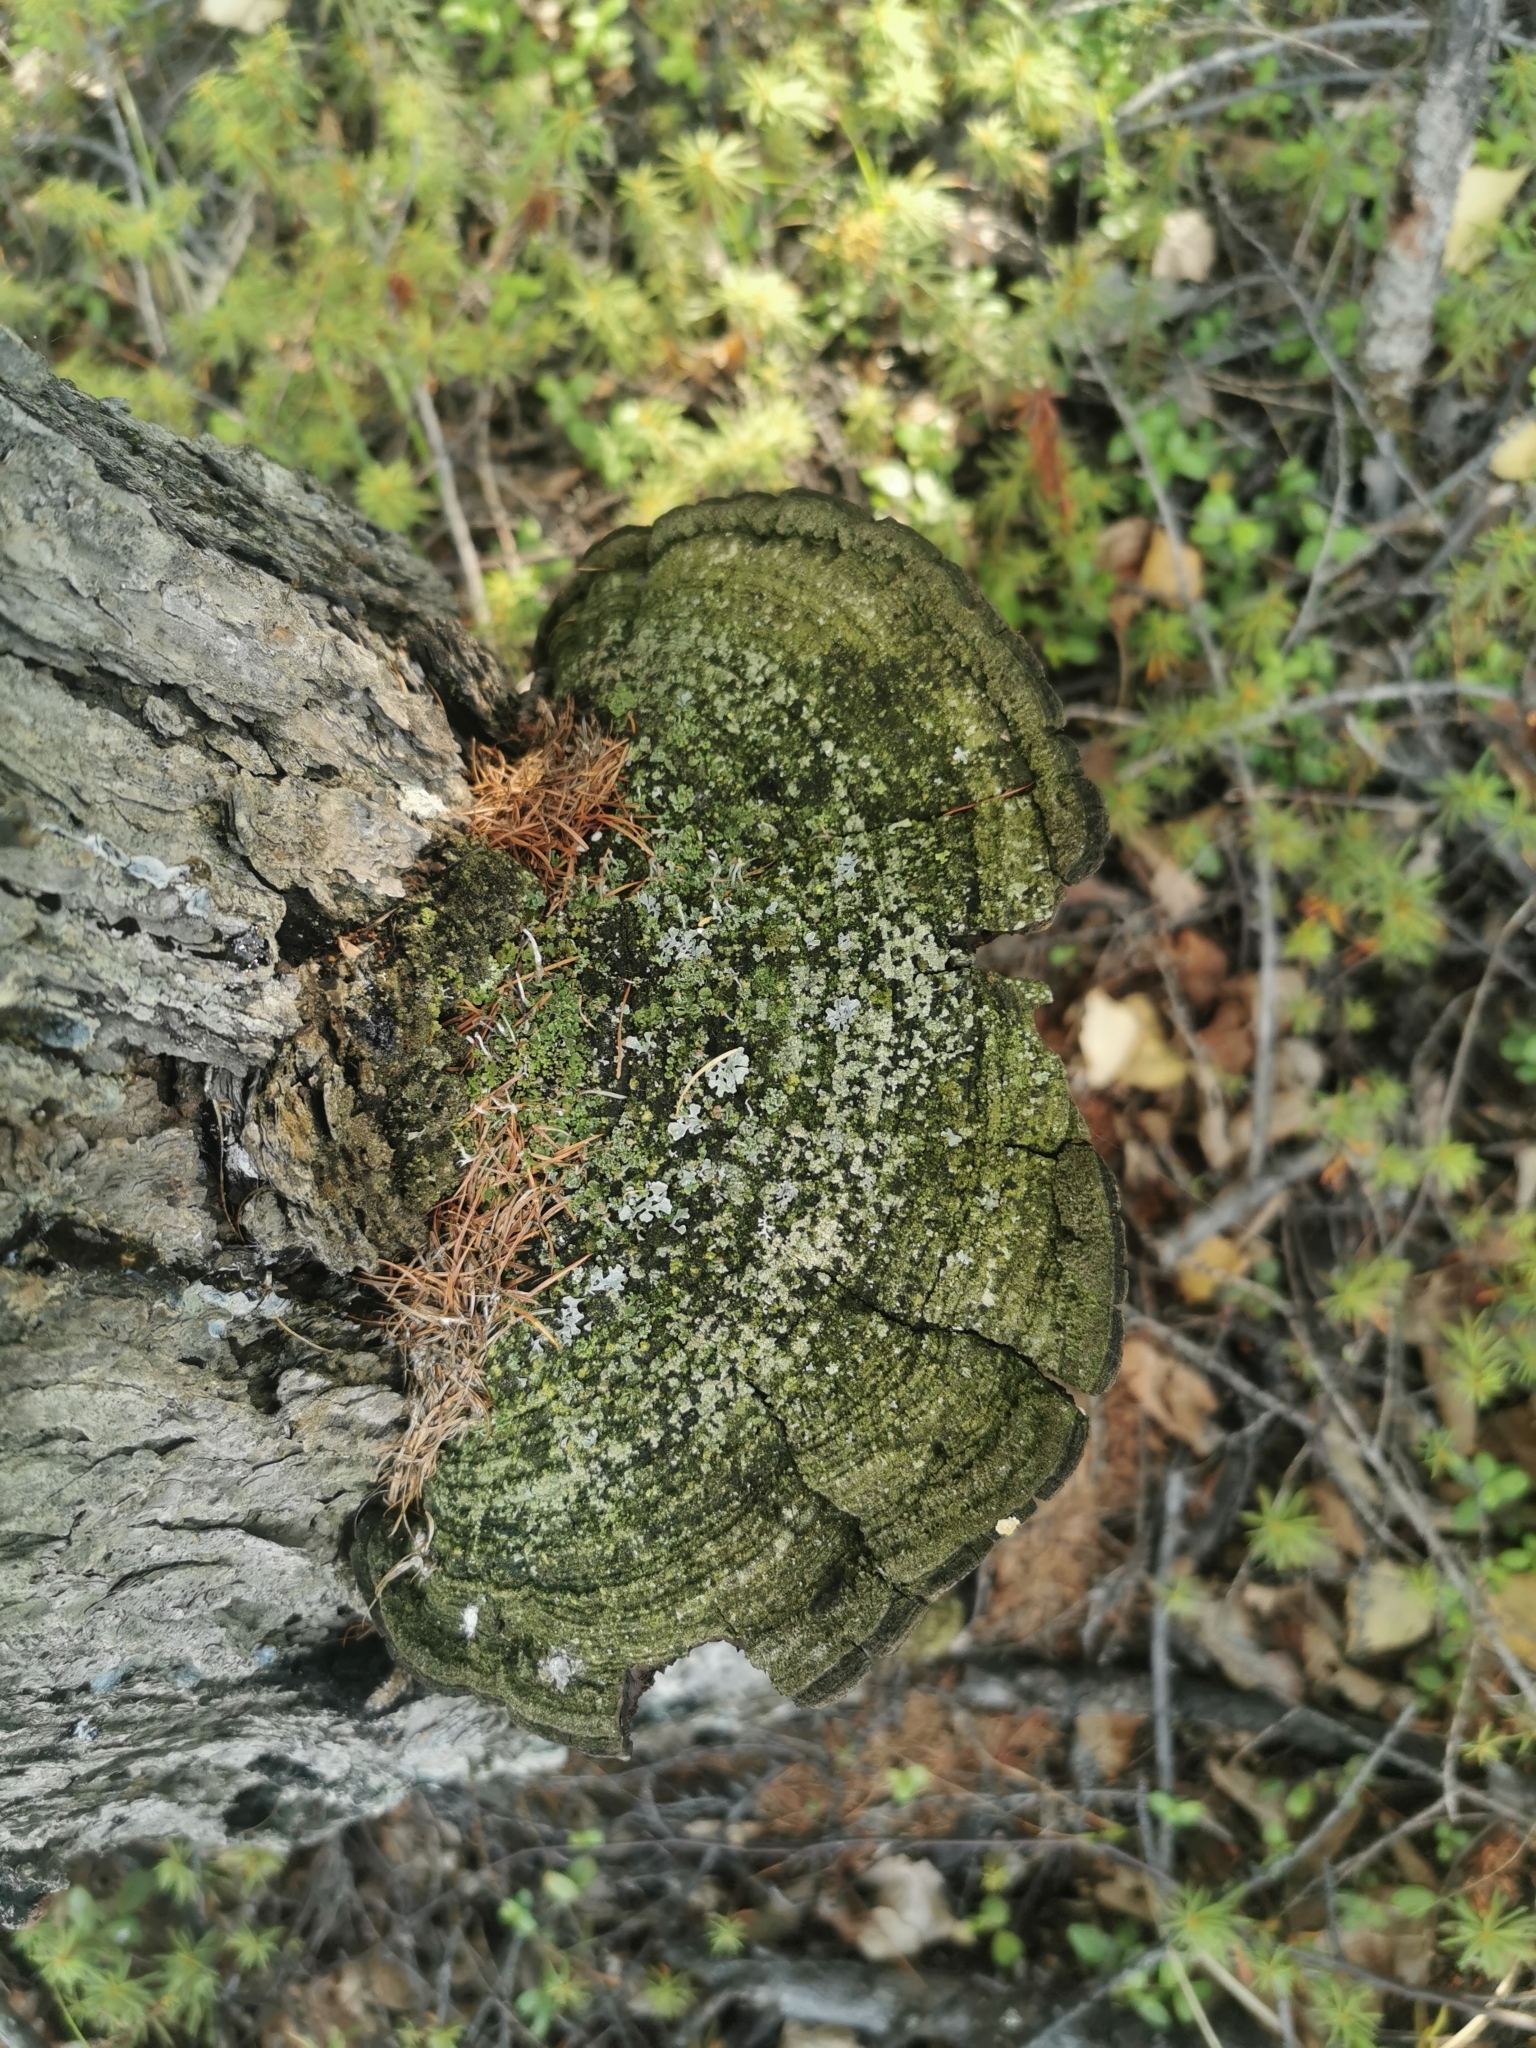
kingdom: Fungi
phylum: Basidiomycota
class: Agaricomycetes
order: Hymenochaetales
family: Hymenochaetaceae
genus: Porodaedalea
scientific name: Porodaedalea pini
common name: Pine bracket
